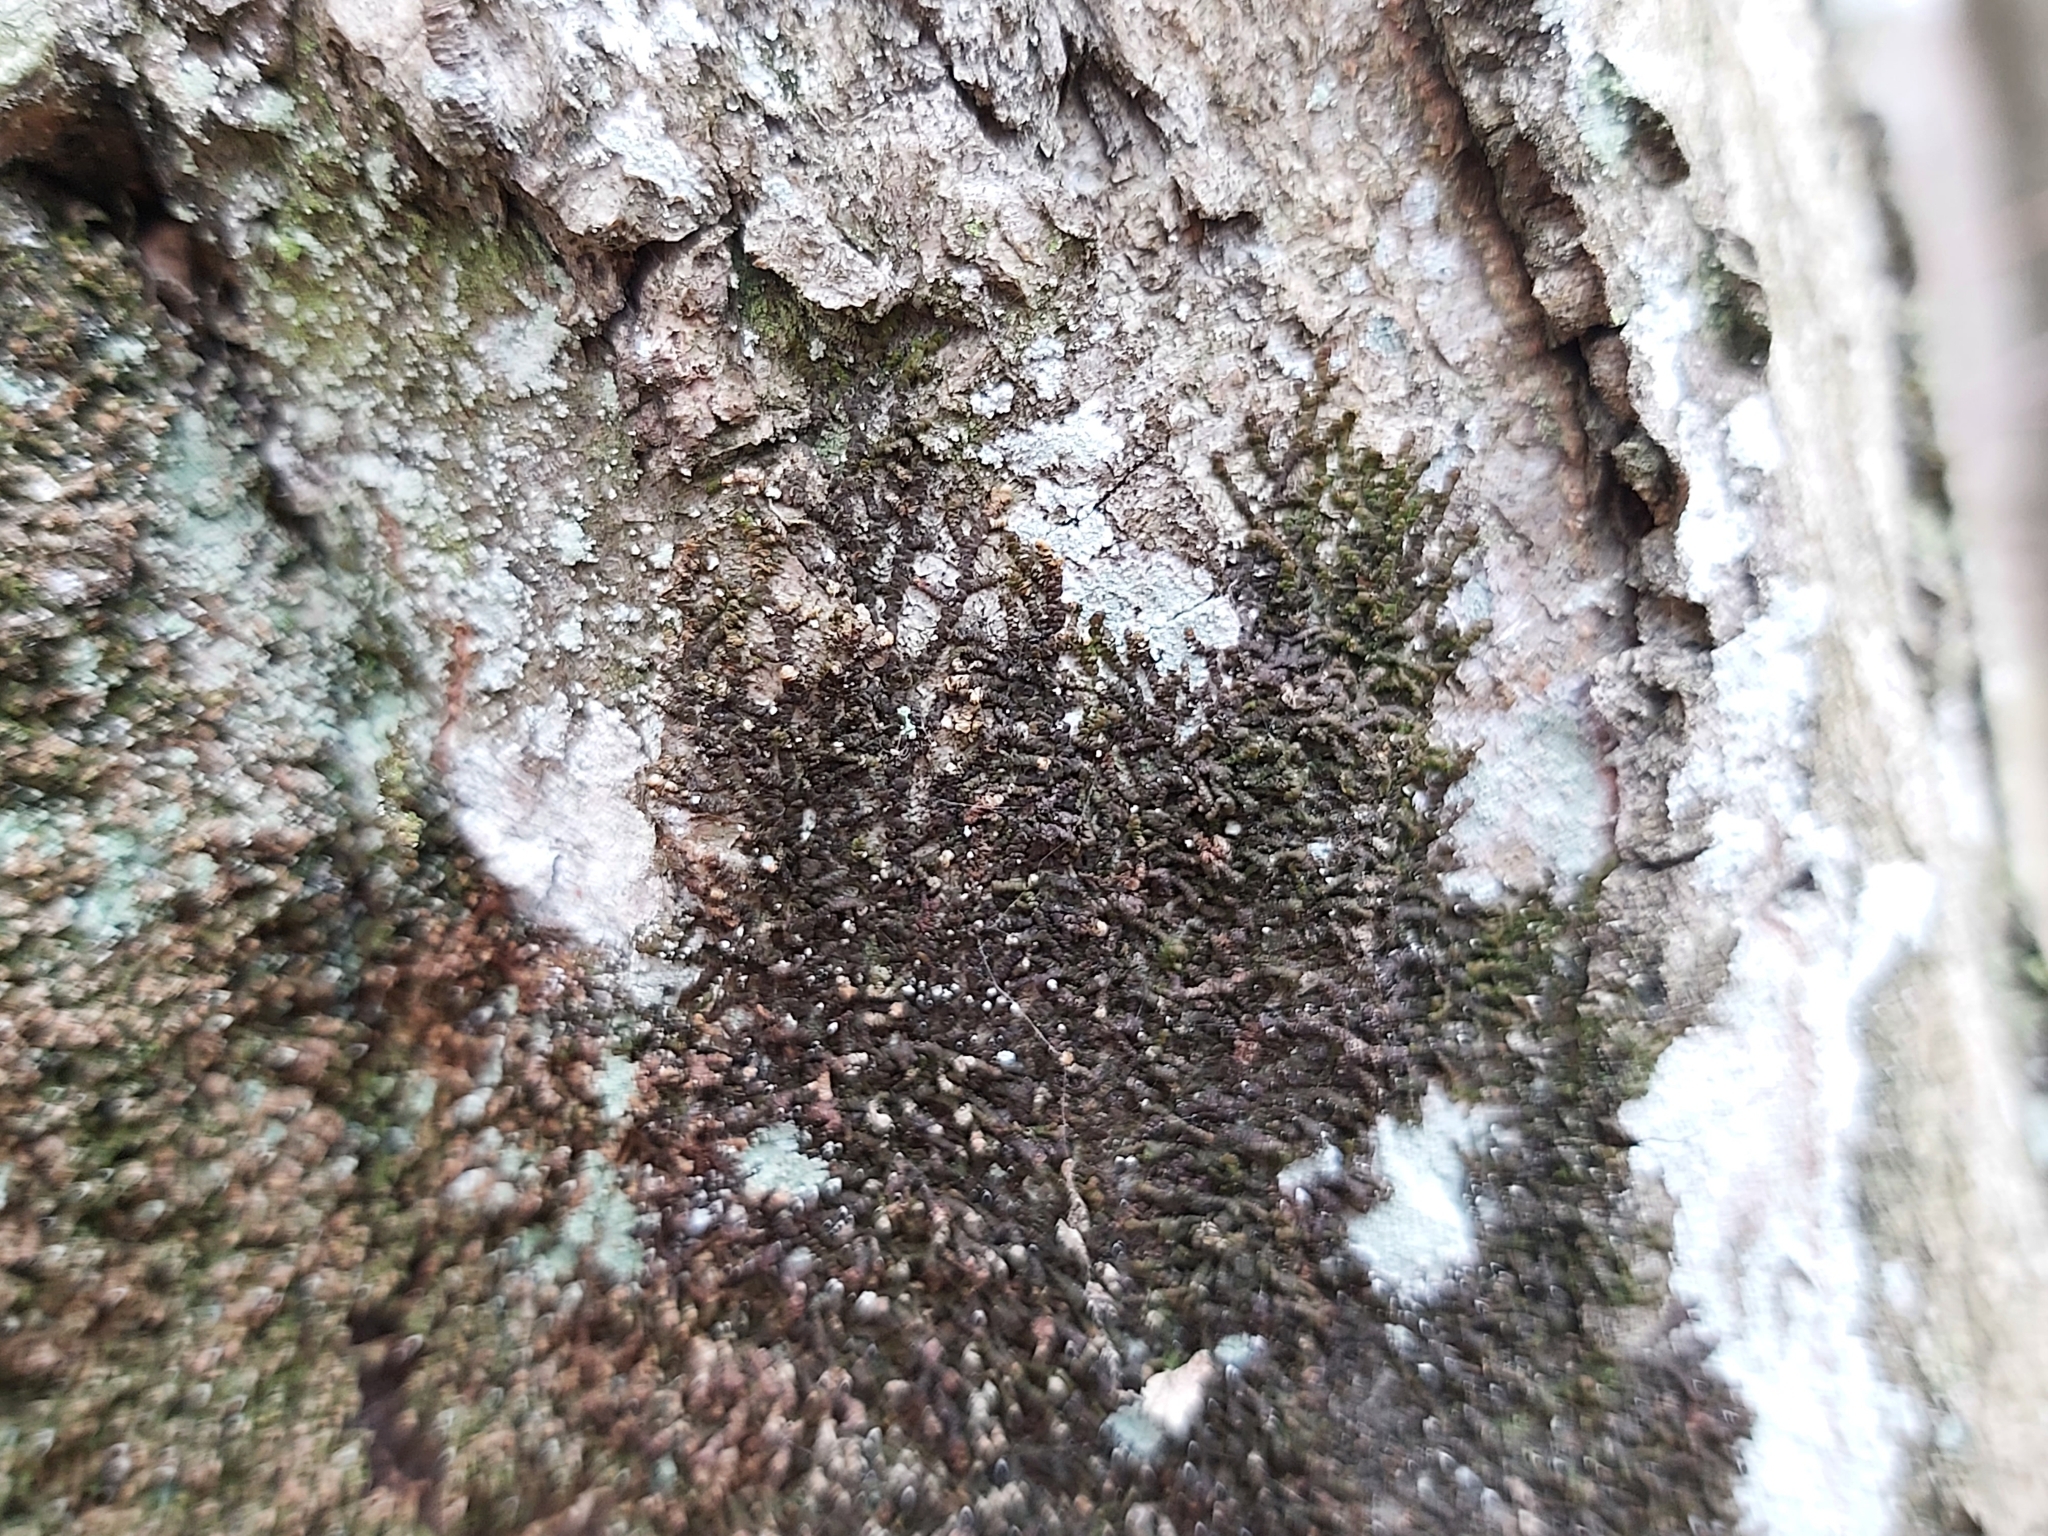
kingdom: Plantae
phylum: Marchantiophyta
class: Jungermanniopsida
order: Porellales
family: Frullaniaceae
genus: Frullania
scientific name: Frullania dilatata
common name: Dilated scalewort
